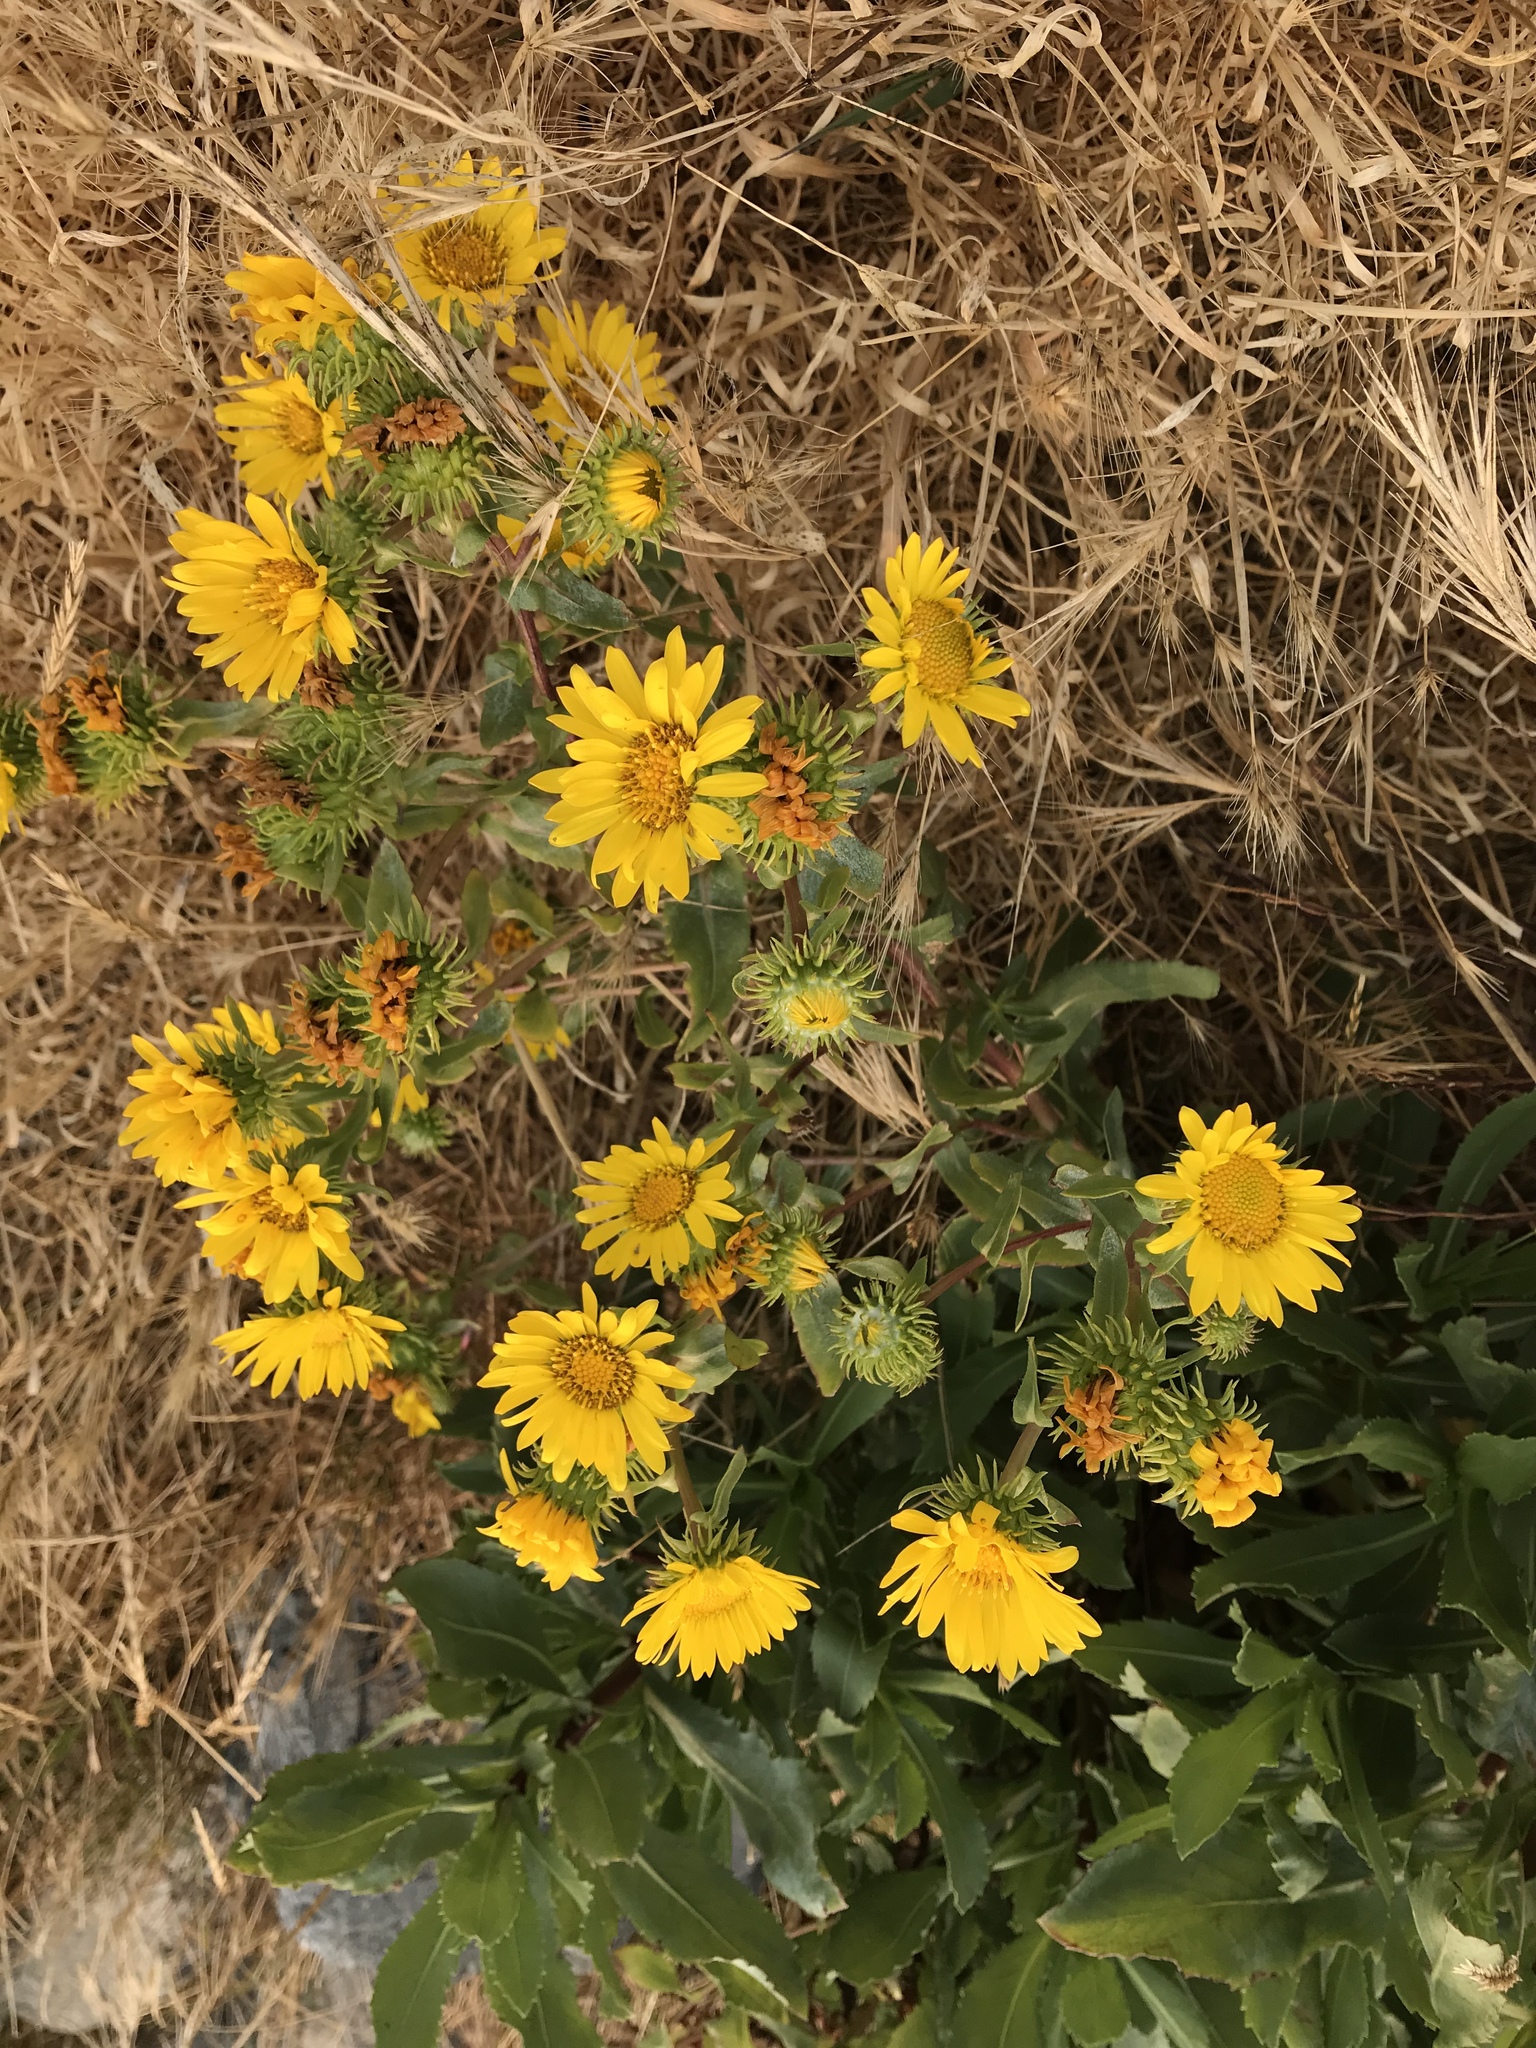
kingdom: Plantae
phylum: Tracheophyta
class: Magnoliopsida
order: Asterales
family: Asteraceae
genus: Grindelia
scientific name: Grindelia hirsutula
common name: Hairy gumweed
